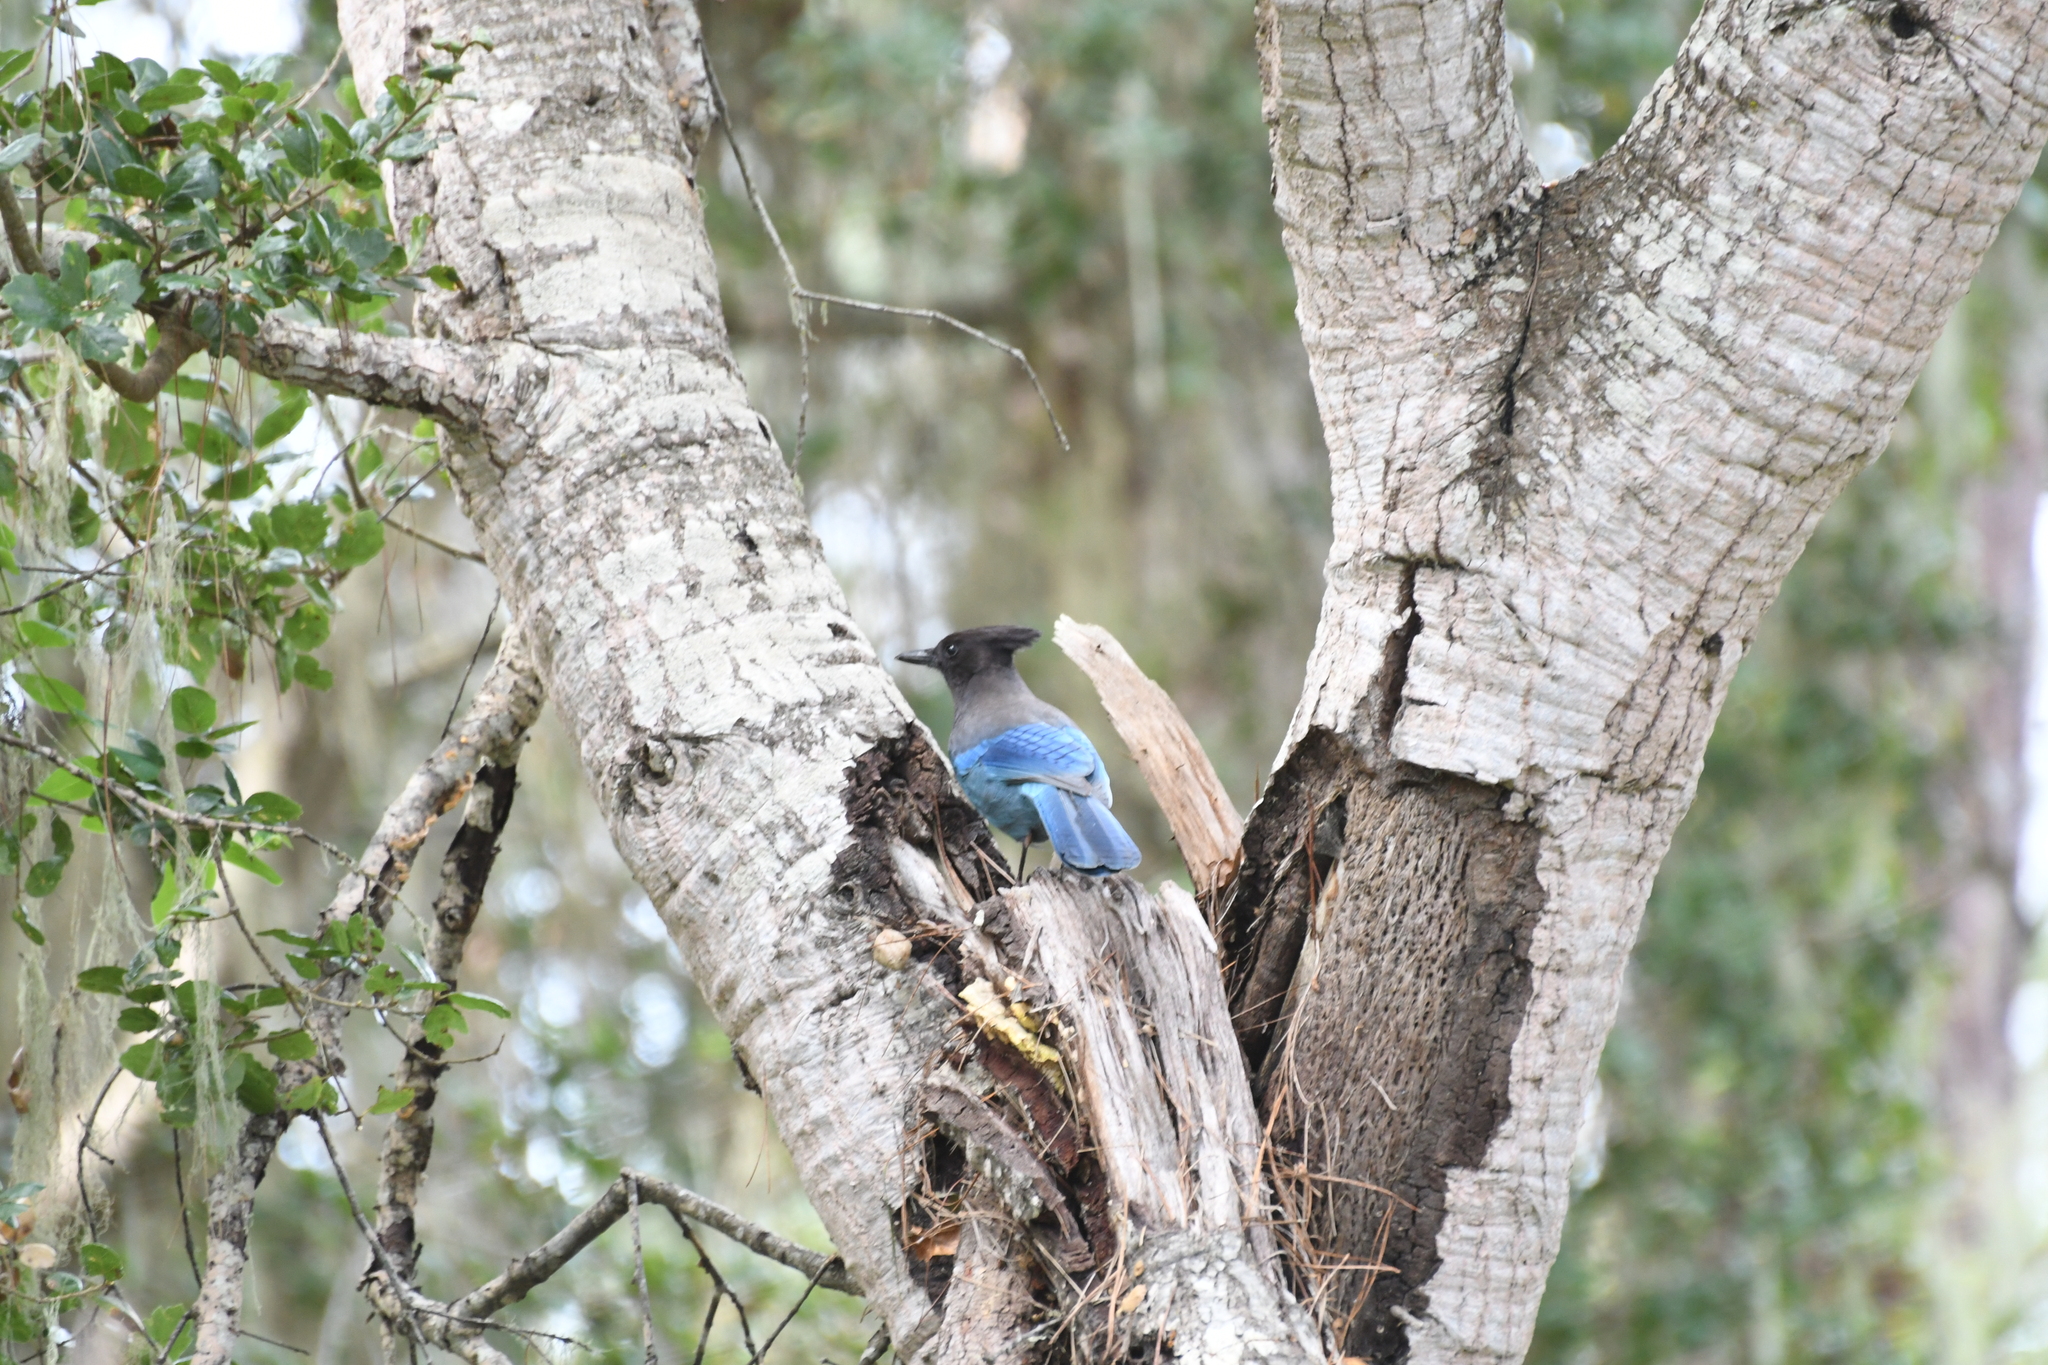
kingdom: Animalia
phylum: Chordata
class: Aves
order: Passeriformes
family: Corvidae
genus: Cyanocitta
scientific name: Cyanocitta stelleri
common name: Steller's jay
